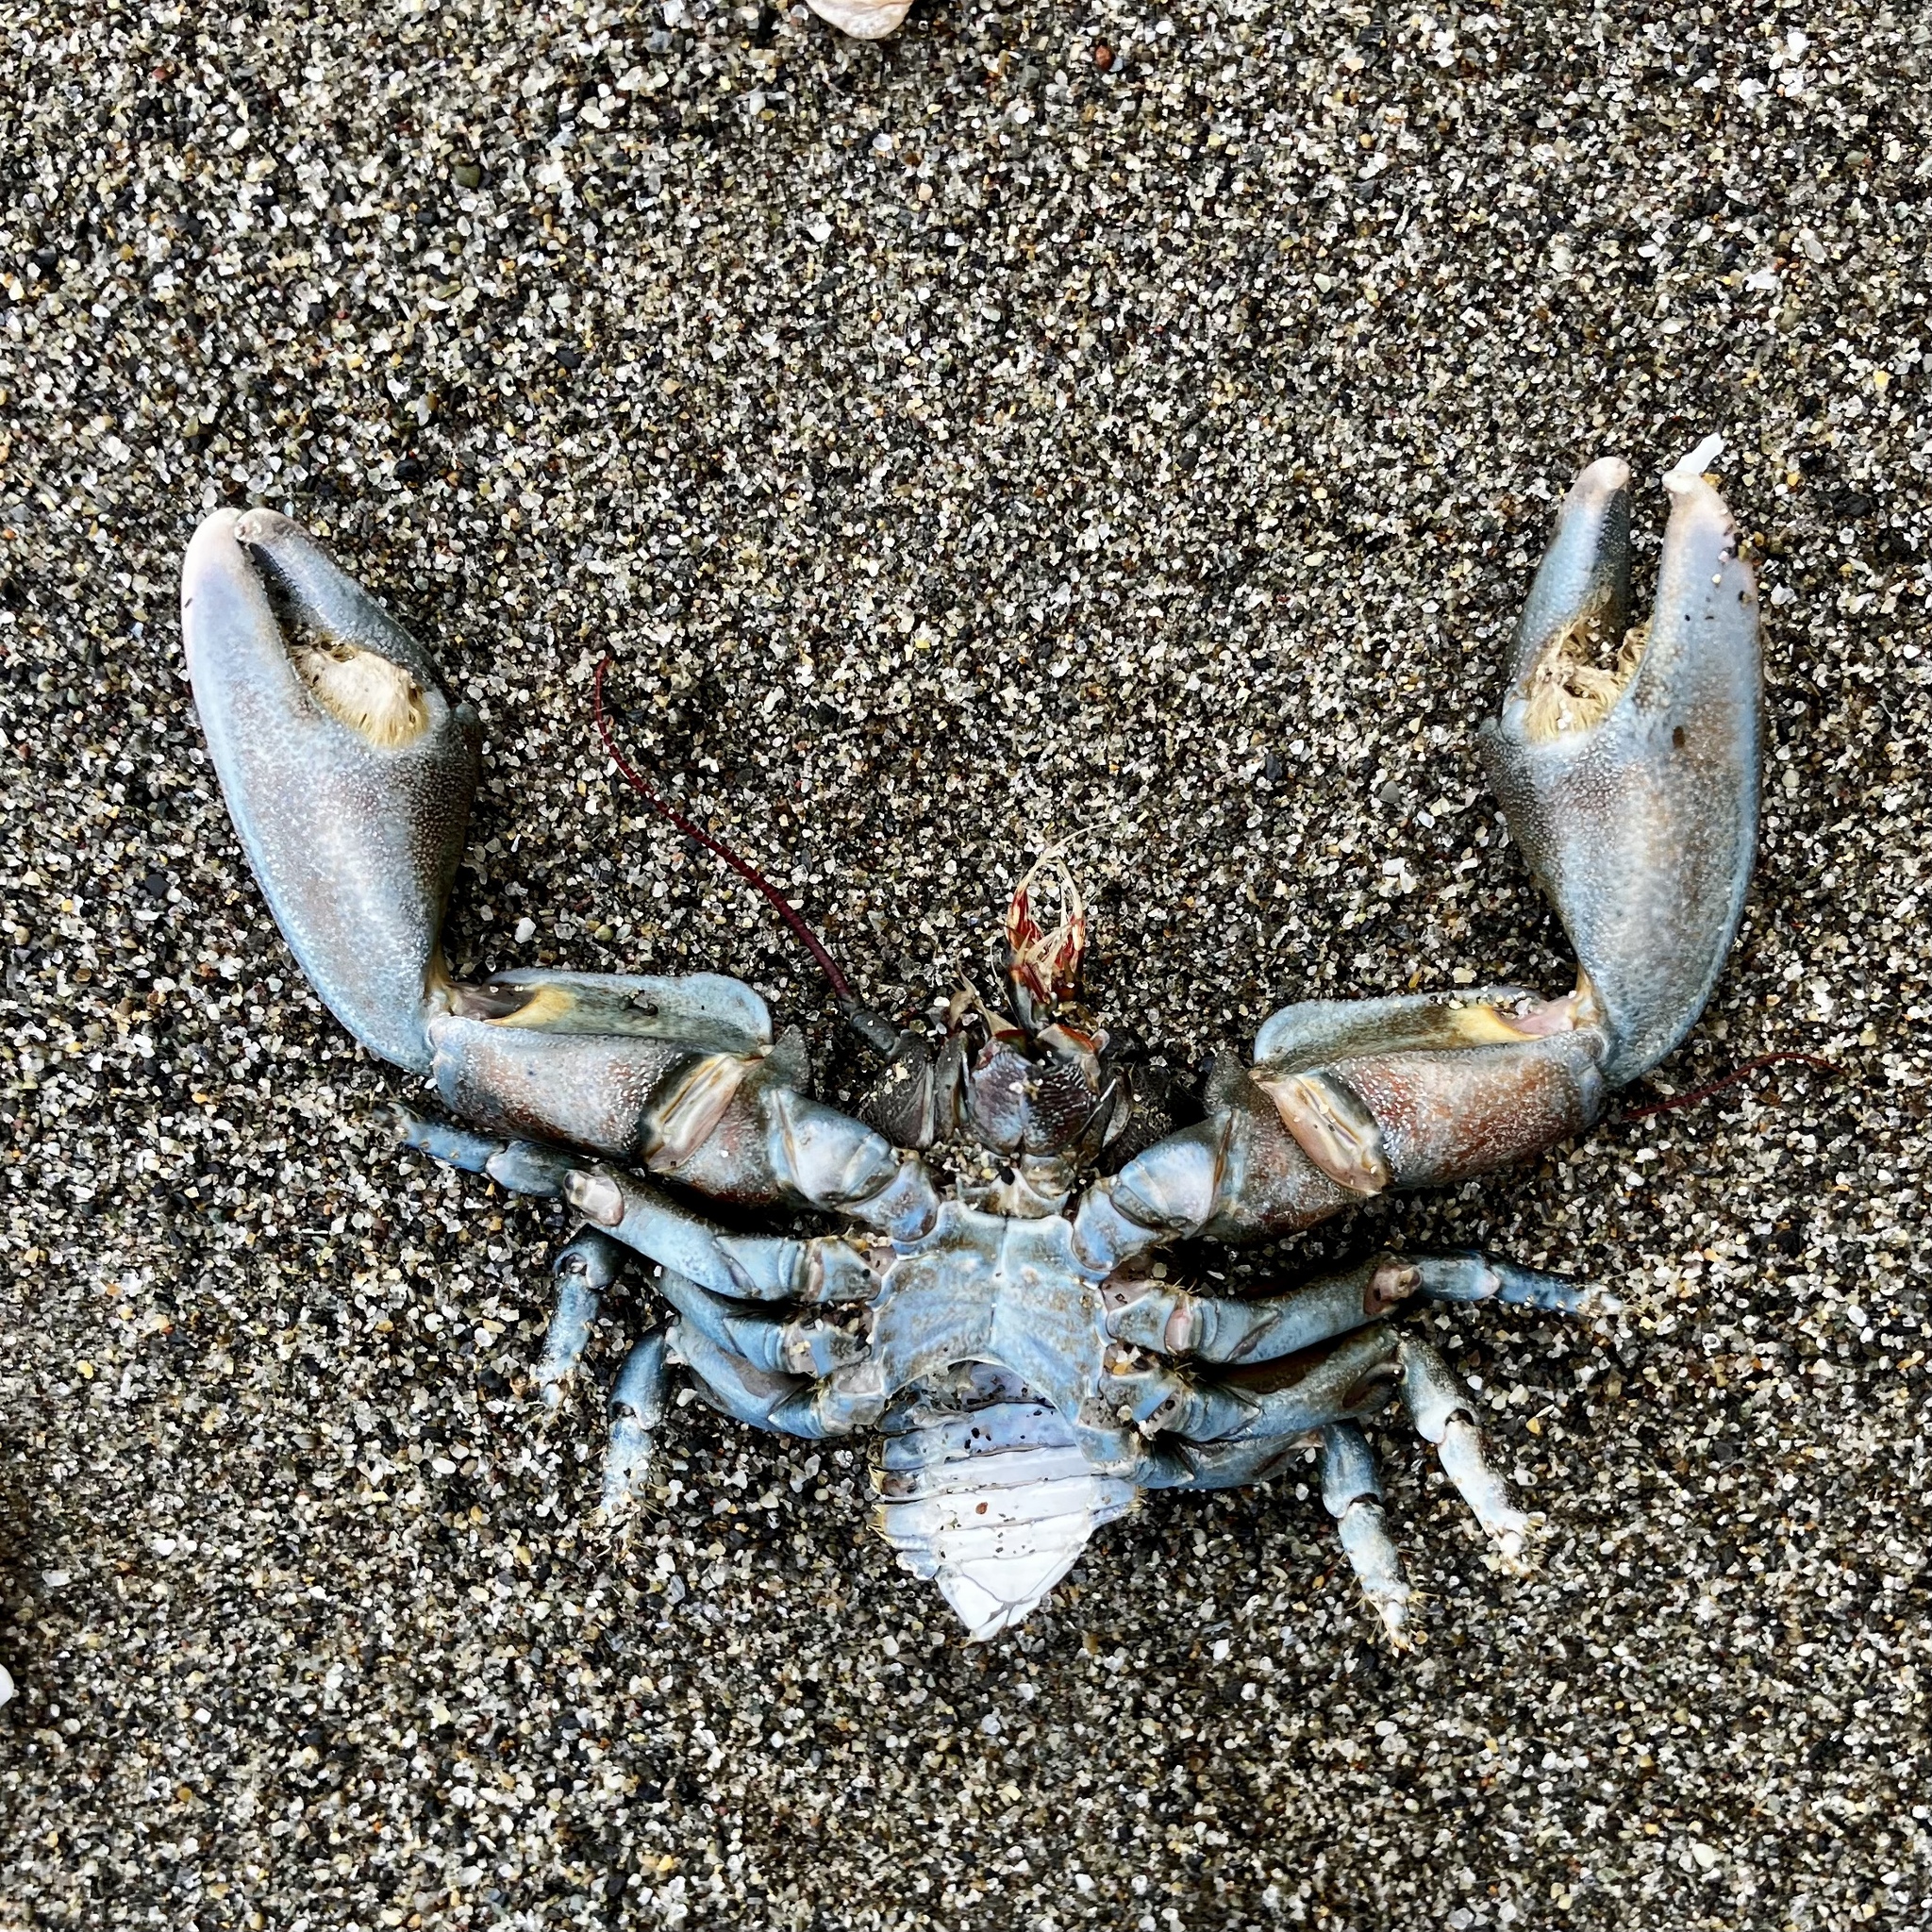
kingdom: Animalia
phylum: Arthropoda
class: Malacostraca
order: Decapoda
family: Porcellanidae
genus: Petrolisthes
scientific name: Petrolisthes cinctipes
